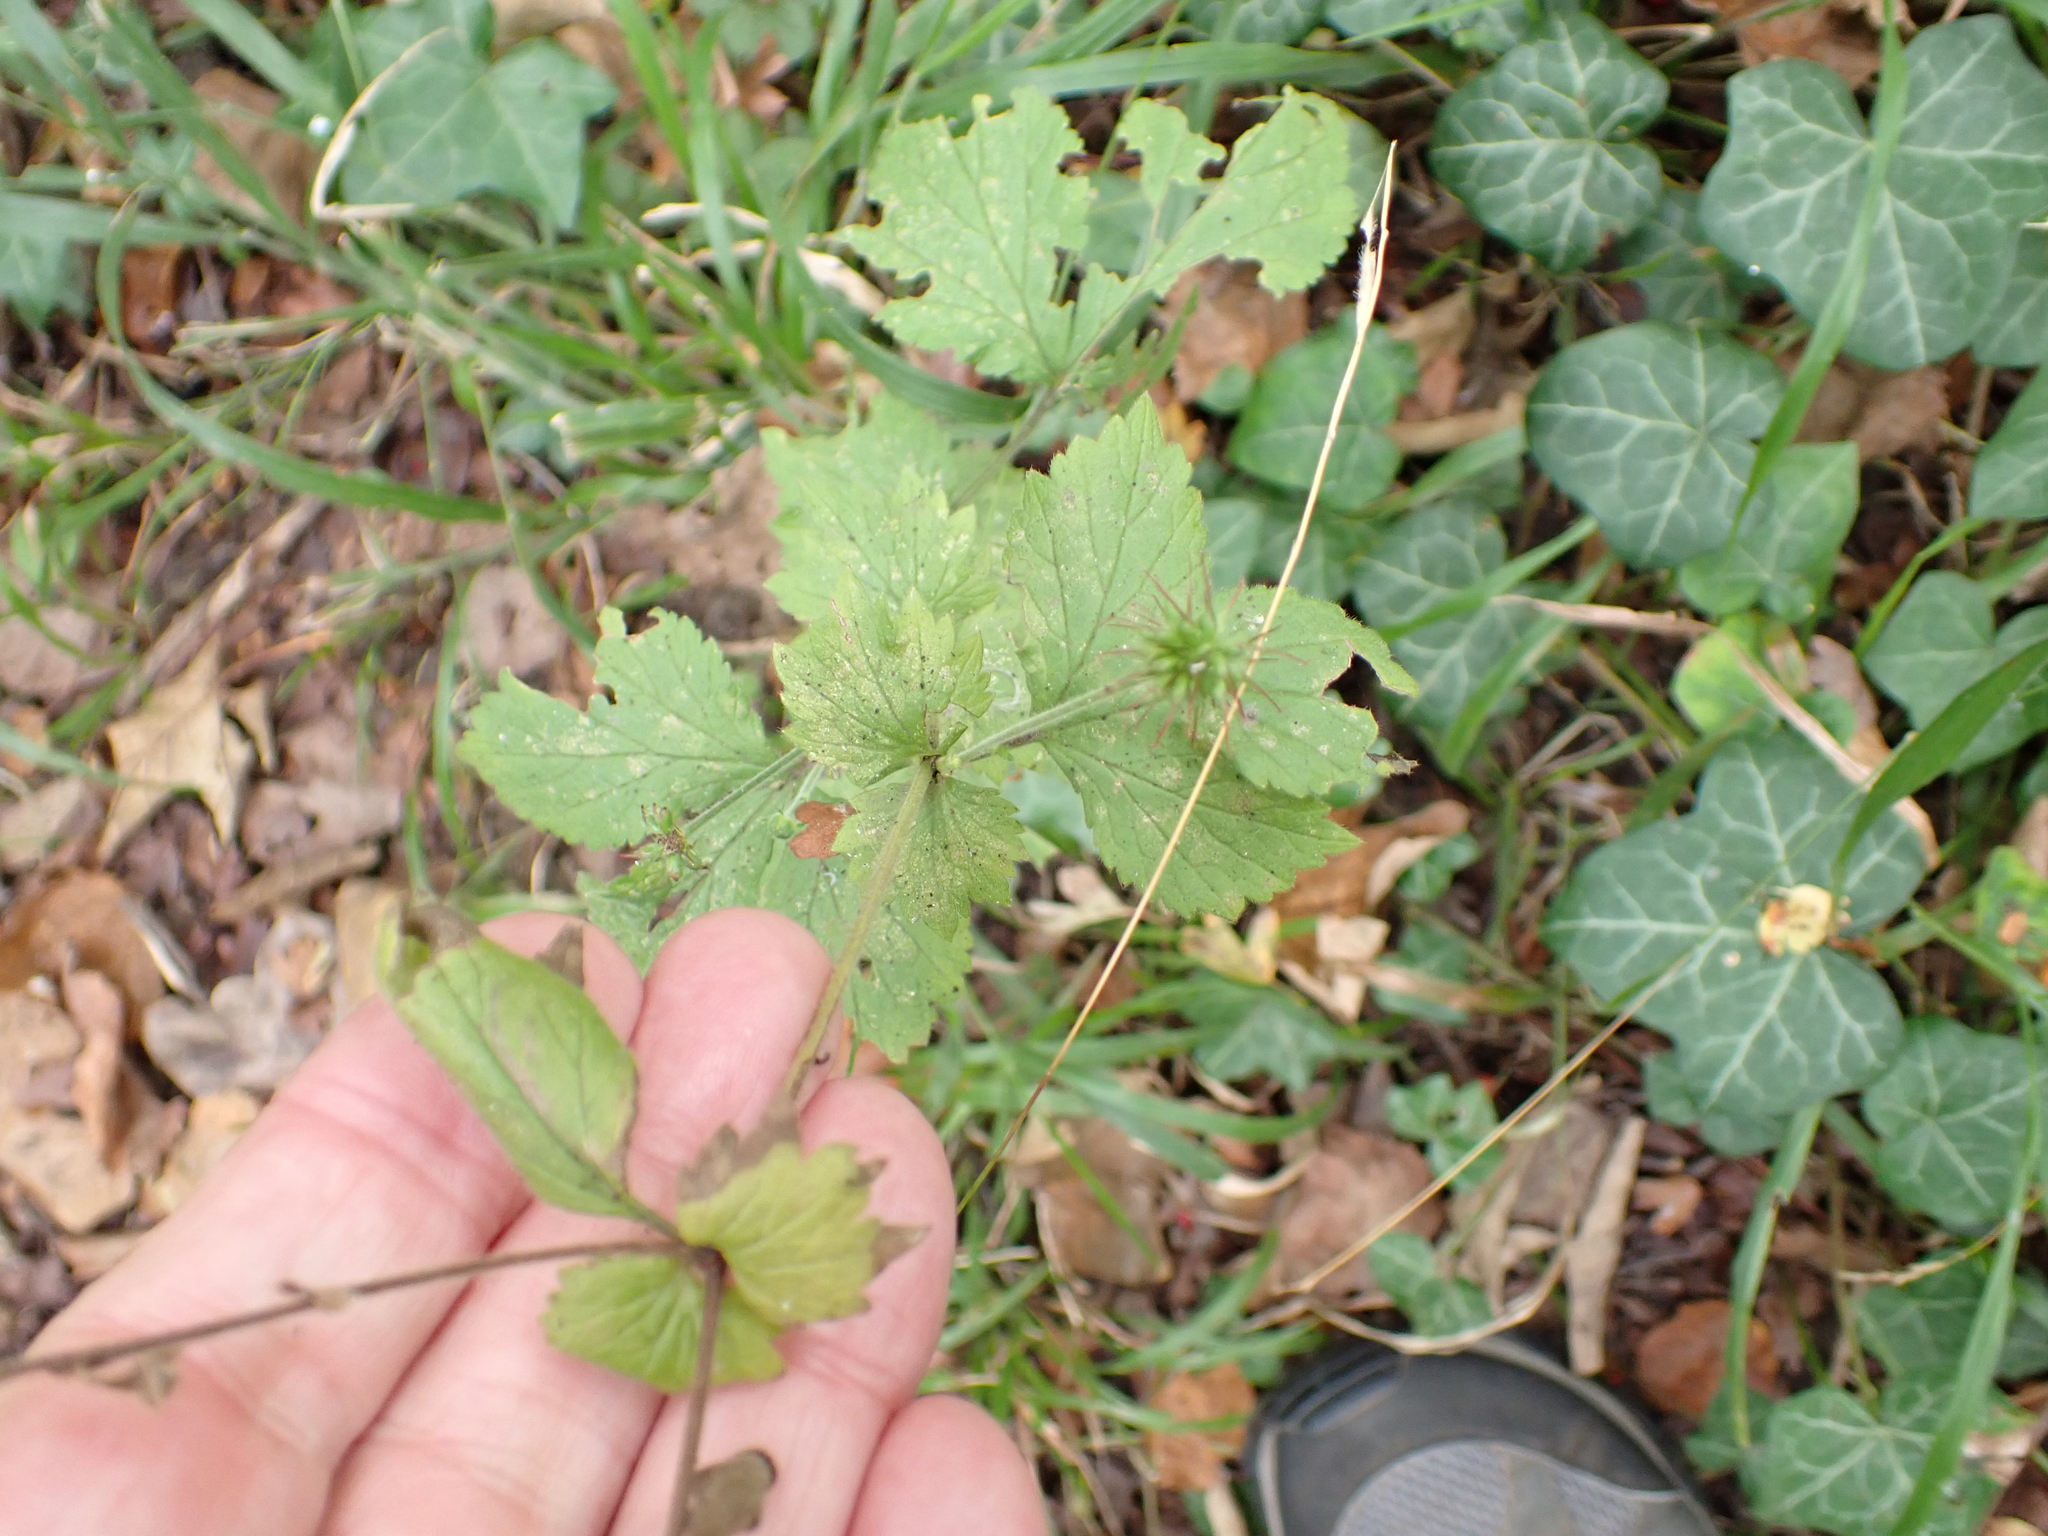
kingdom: Plantae
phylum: Tracheophyta
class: Magnoliopsida
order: Rosales
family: Rosaceae
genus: Geum
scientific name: Geum urbanum
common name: Wood avens
